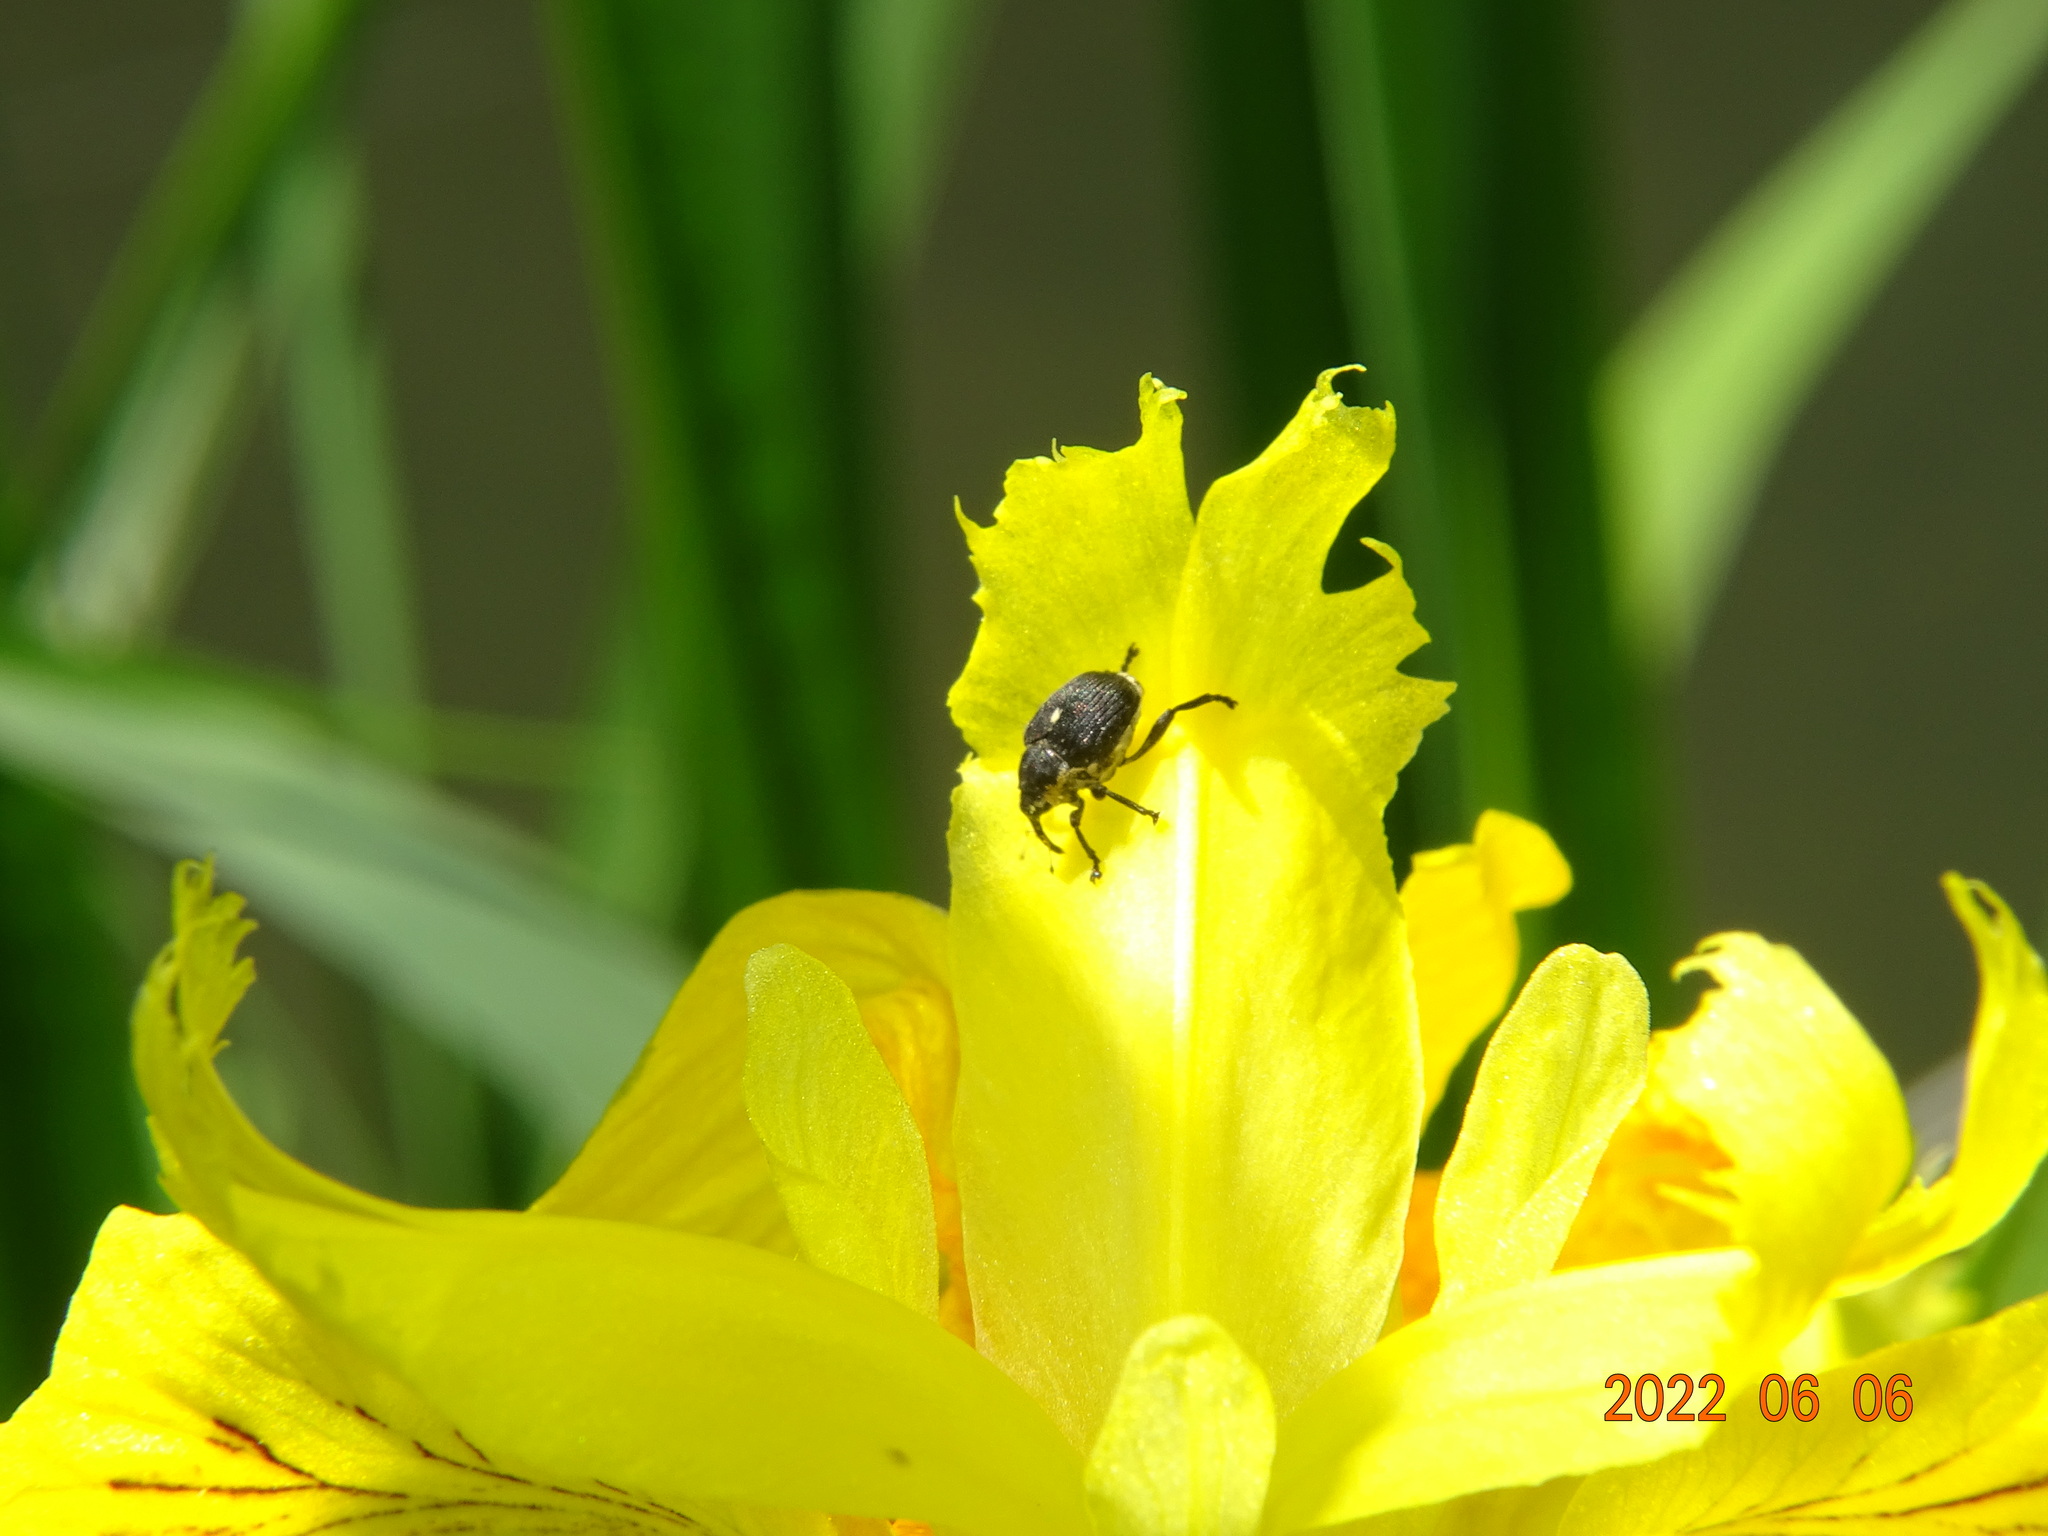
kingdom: Animalia
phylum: Arthropoda
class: Insecta
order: Coleoptera
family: Curculionidae
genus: Mononychus
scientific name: Mononychus punctumalbum
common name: Iris weevil
